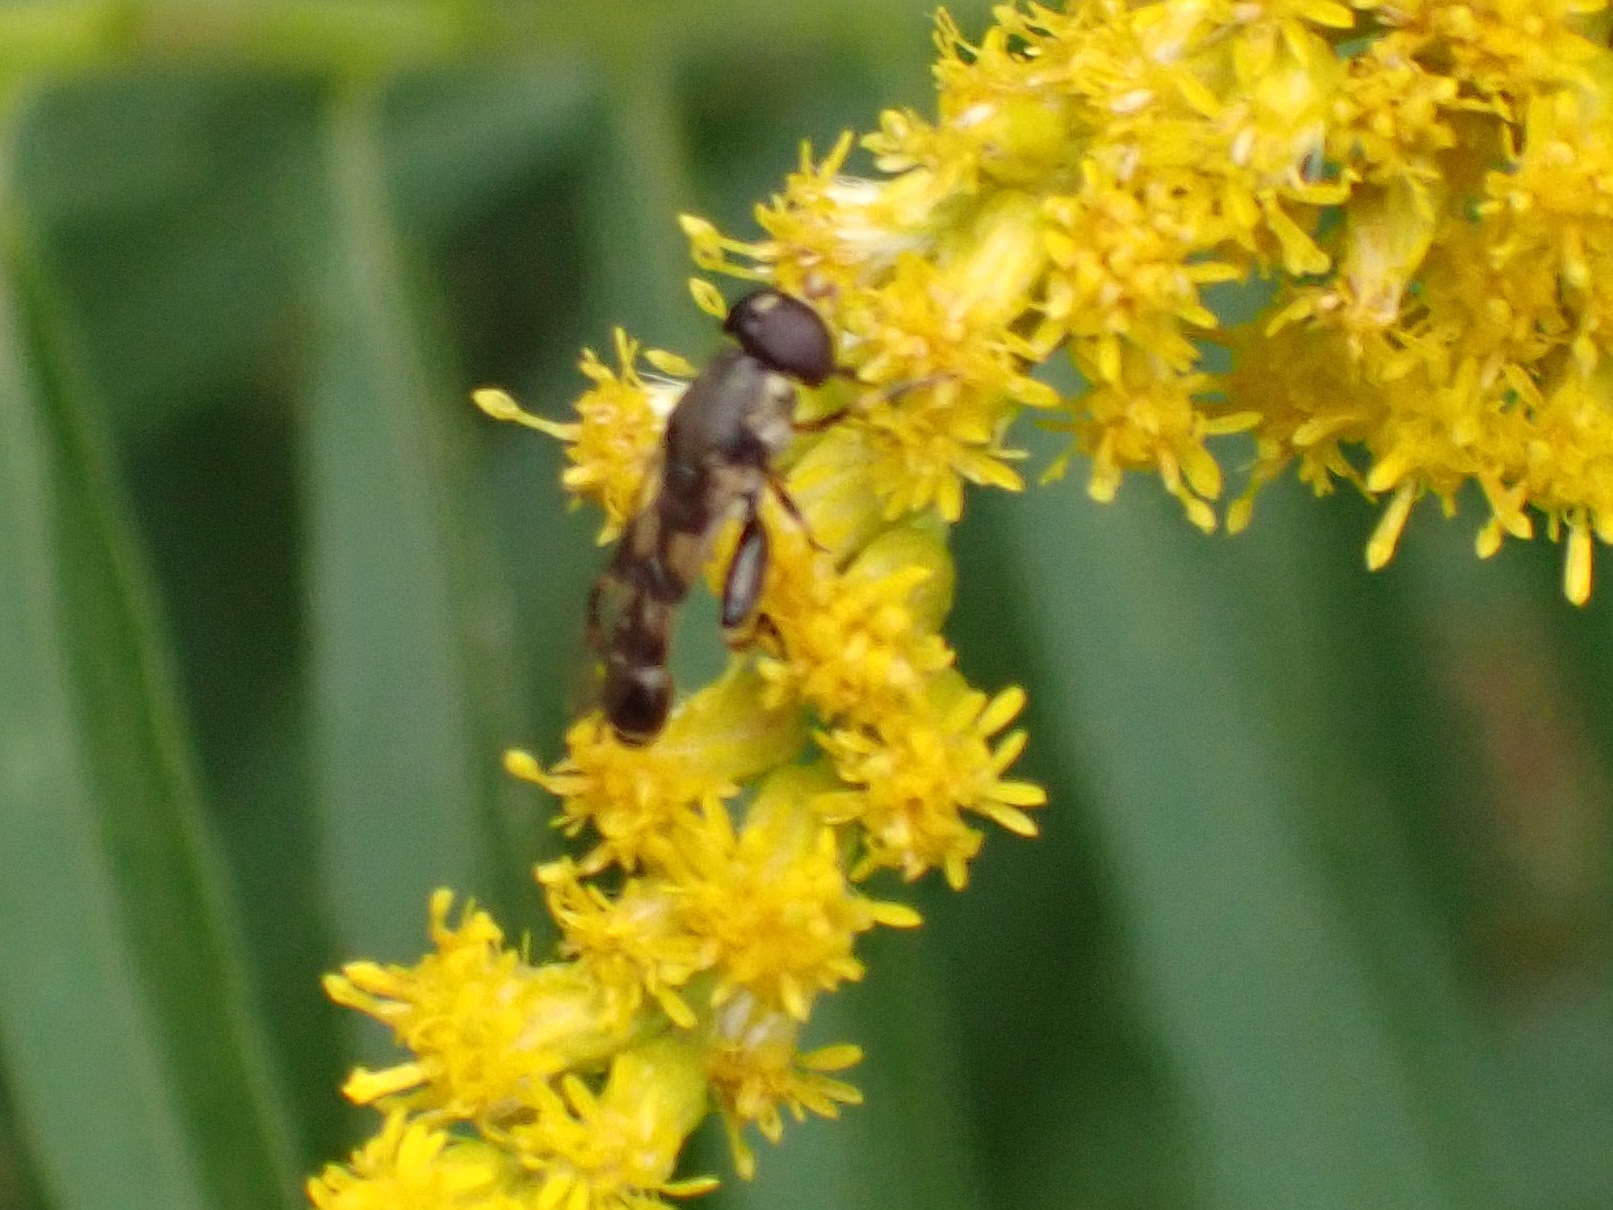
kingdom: Animalia
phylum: Arthropoda
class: Insecta
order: Diptera
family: Syrphidae
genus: Syritta
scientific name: Syritta pipiens
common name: Hover fly
